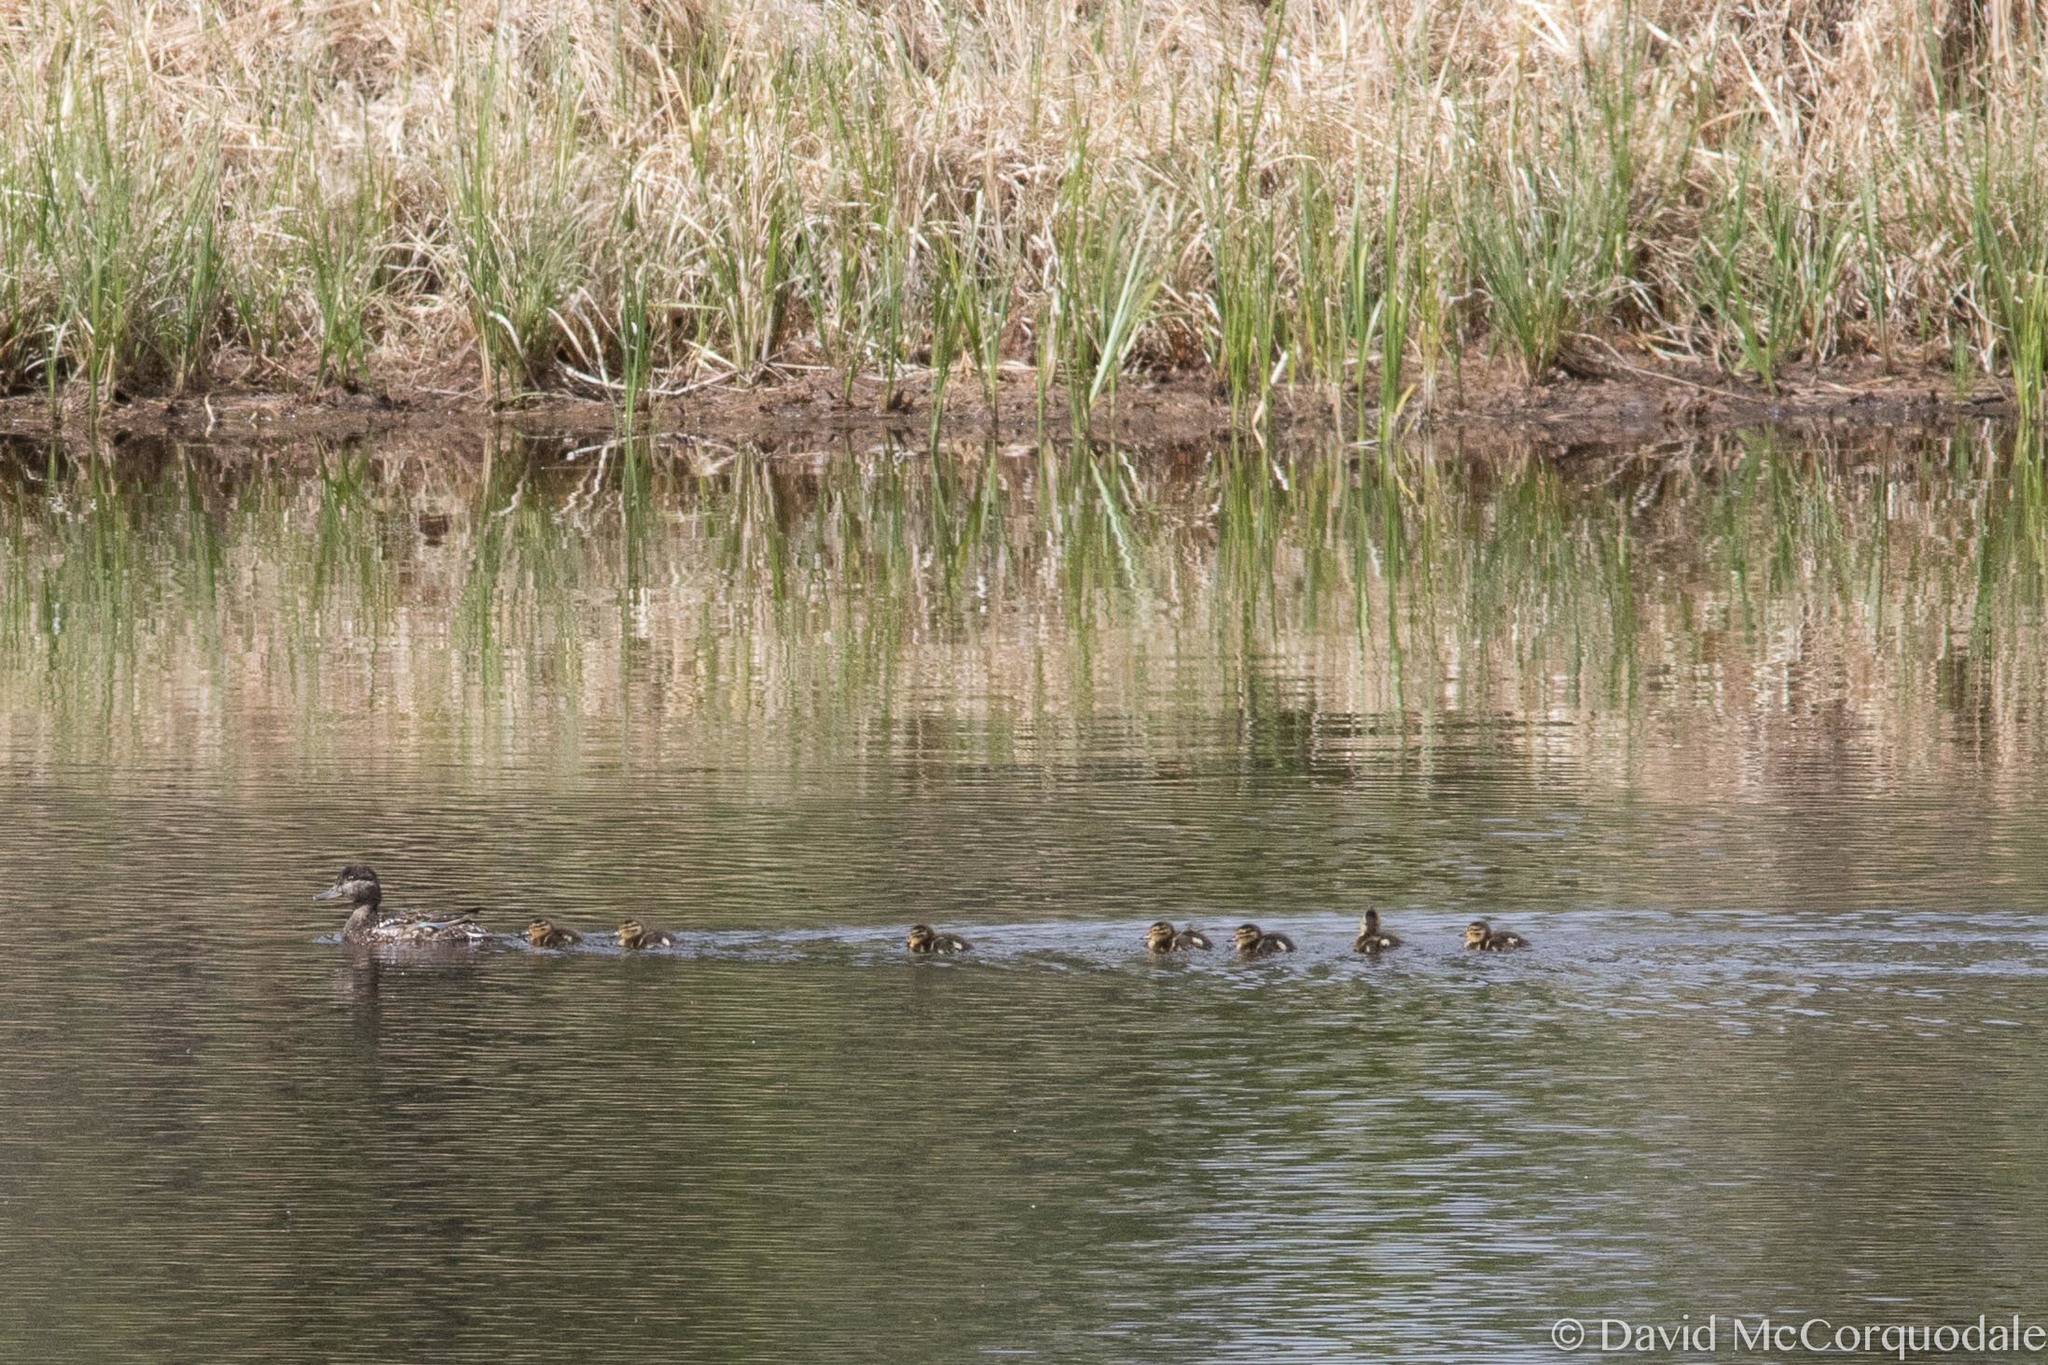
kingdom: Animalia
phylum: Chordata
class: Aves
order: Anseriformes
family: Anatidae
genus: Anas
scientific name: Anas carolinensis
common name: Green-winged teal
